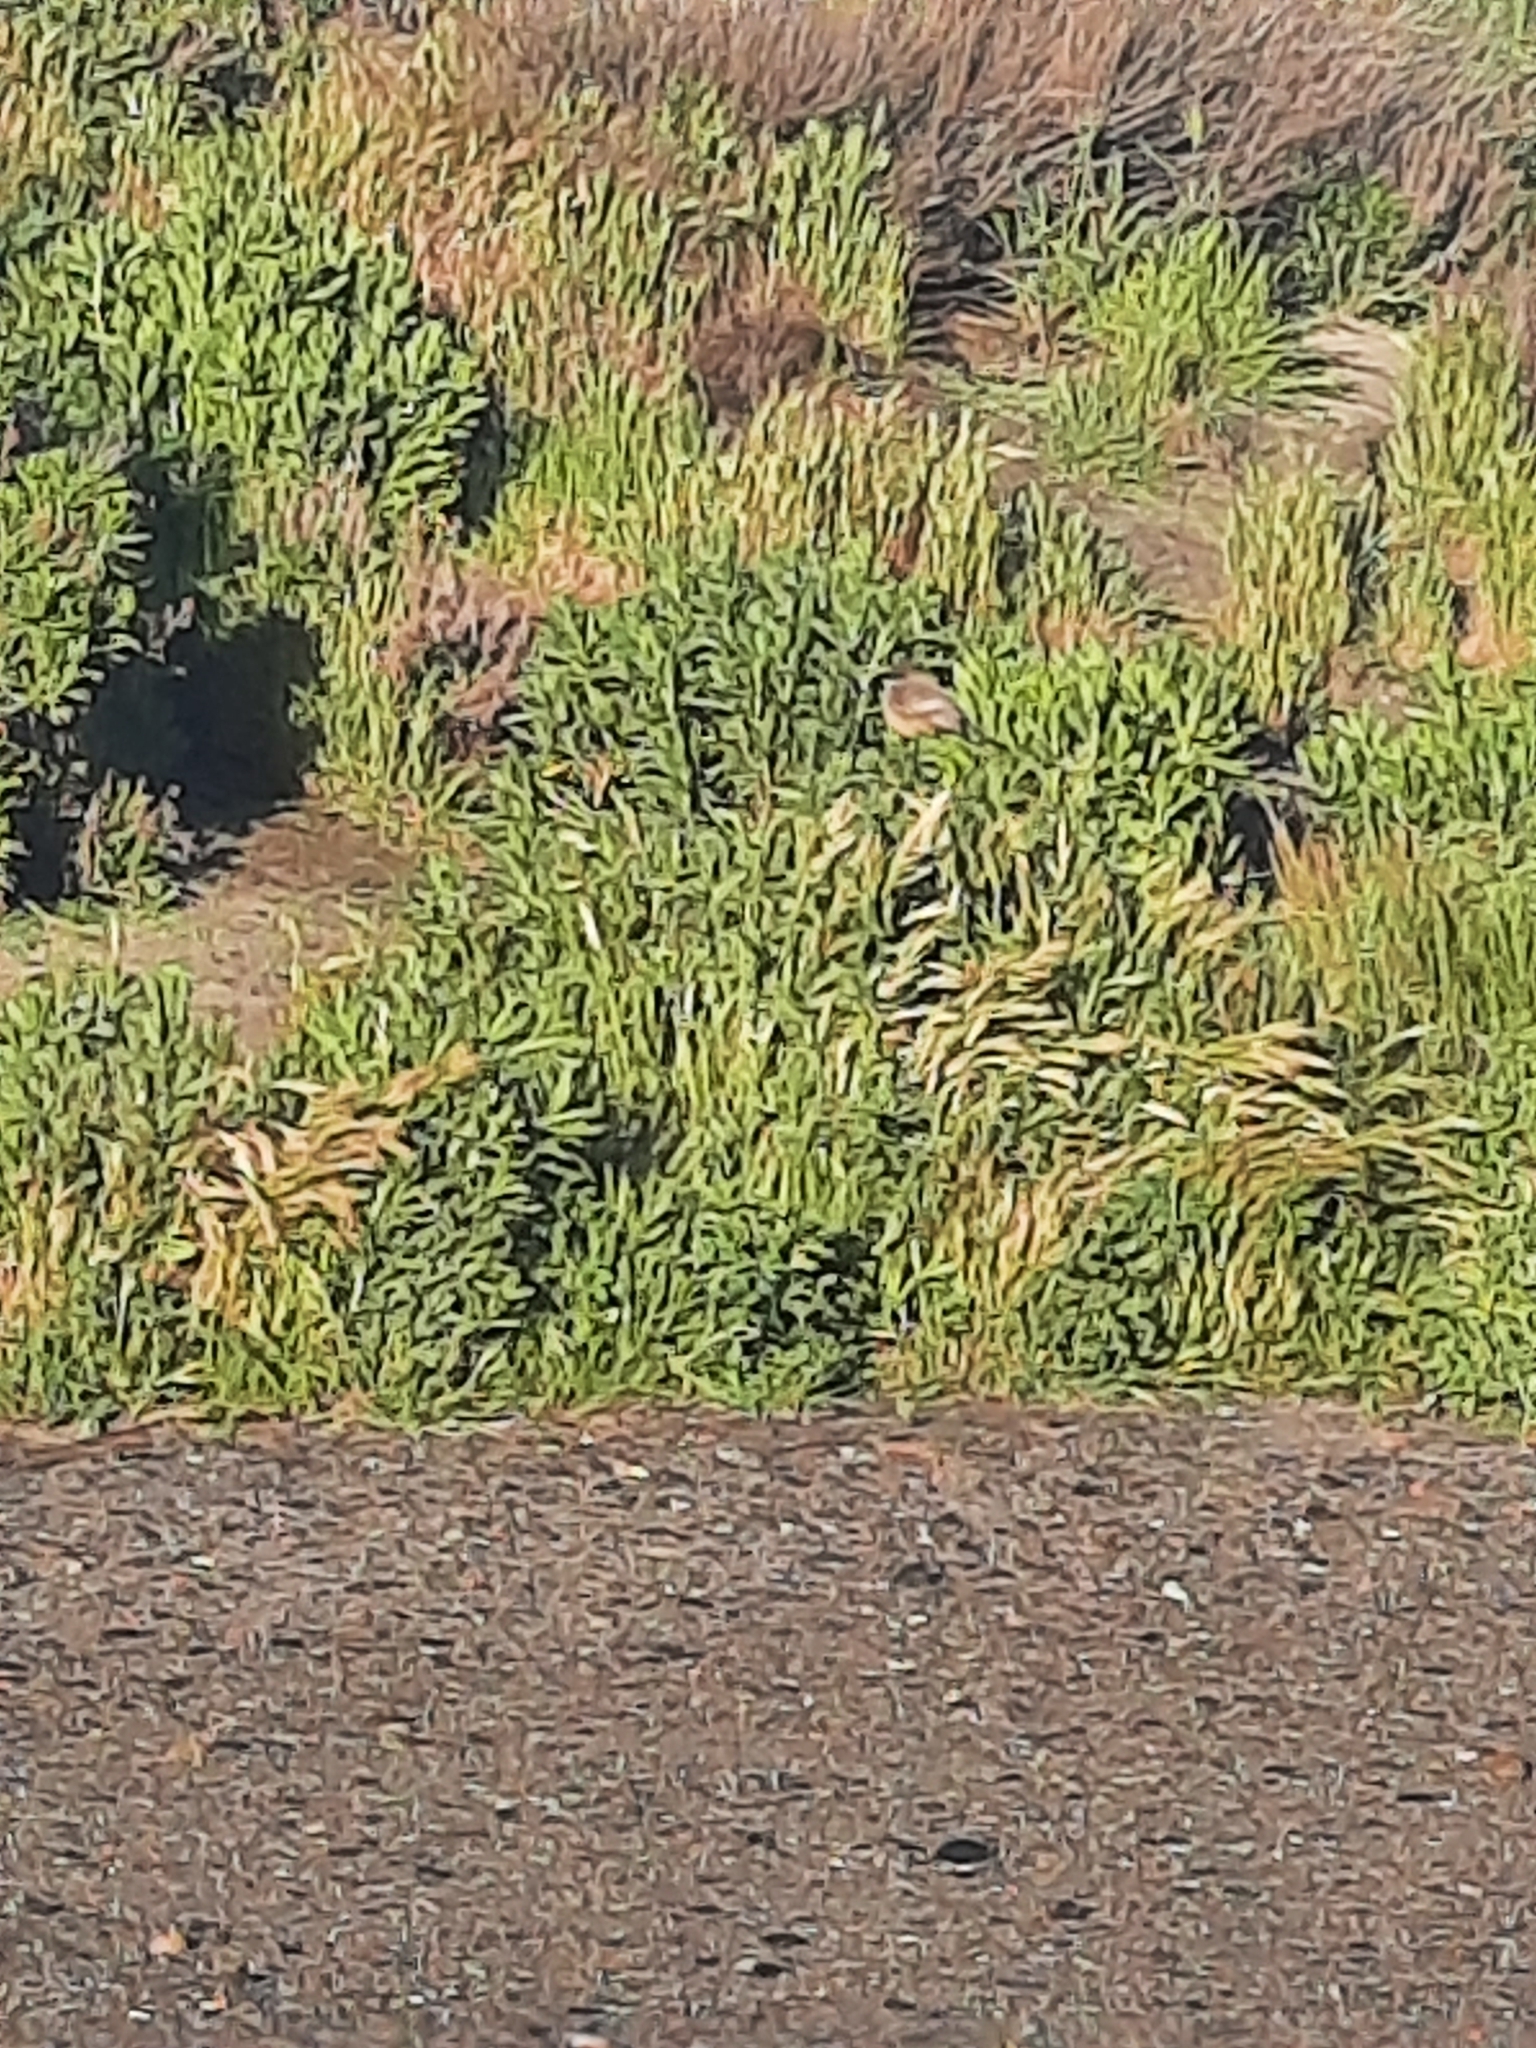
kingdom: Animalia
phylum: Chordata
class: Aves
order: Passeriformes
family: Tyrannidae
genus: Sayornis
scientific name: Sayornis saya
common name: Say's phoebe
